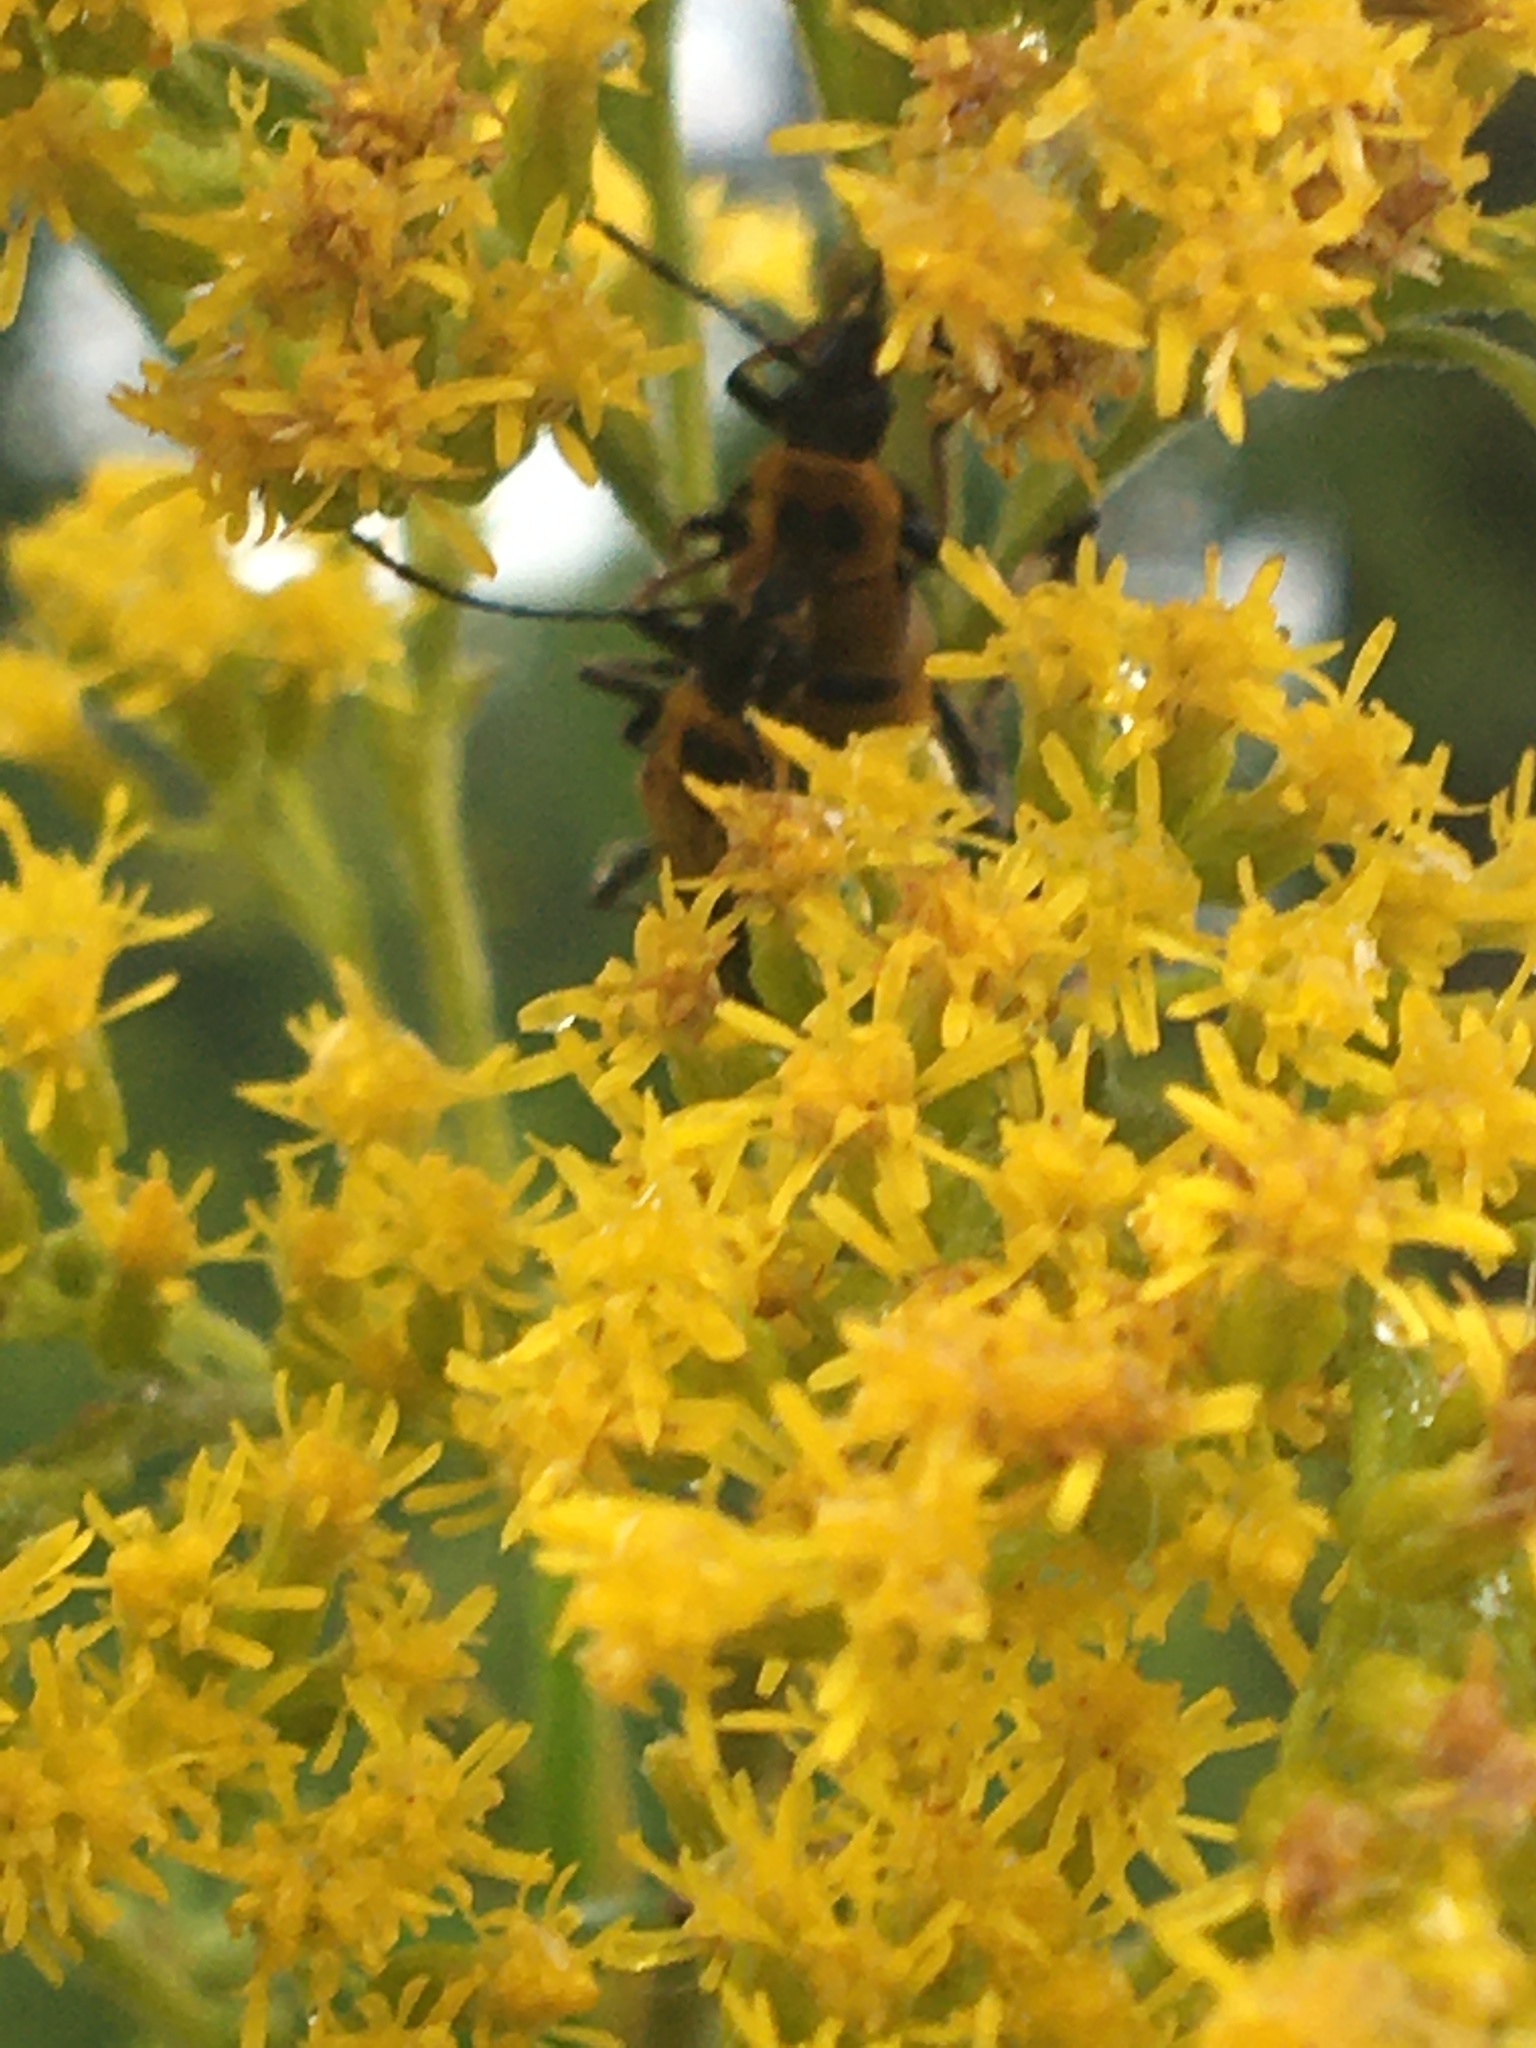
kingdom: Animalia
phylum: Arthropoda
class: Insecta
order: Coleoptera
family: Cantharidae
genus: Chauliognathus
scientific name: Chauliognathus pensylvanicus
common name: Goldenrod soldier beetle
